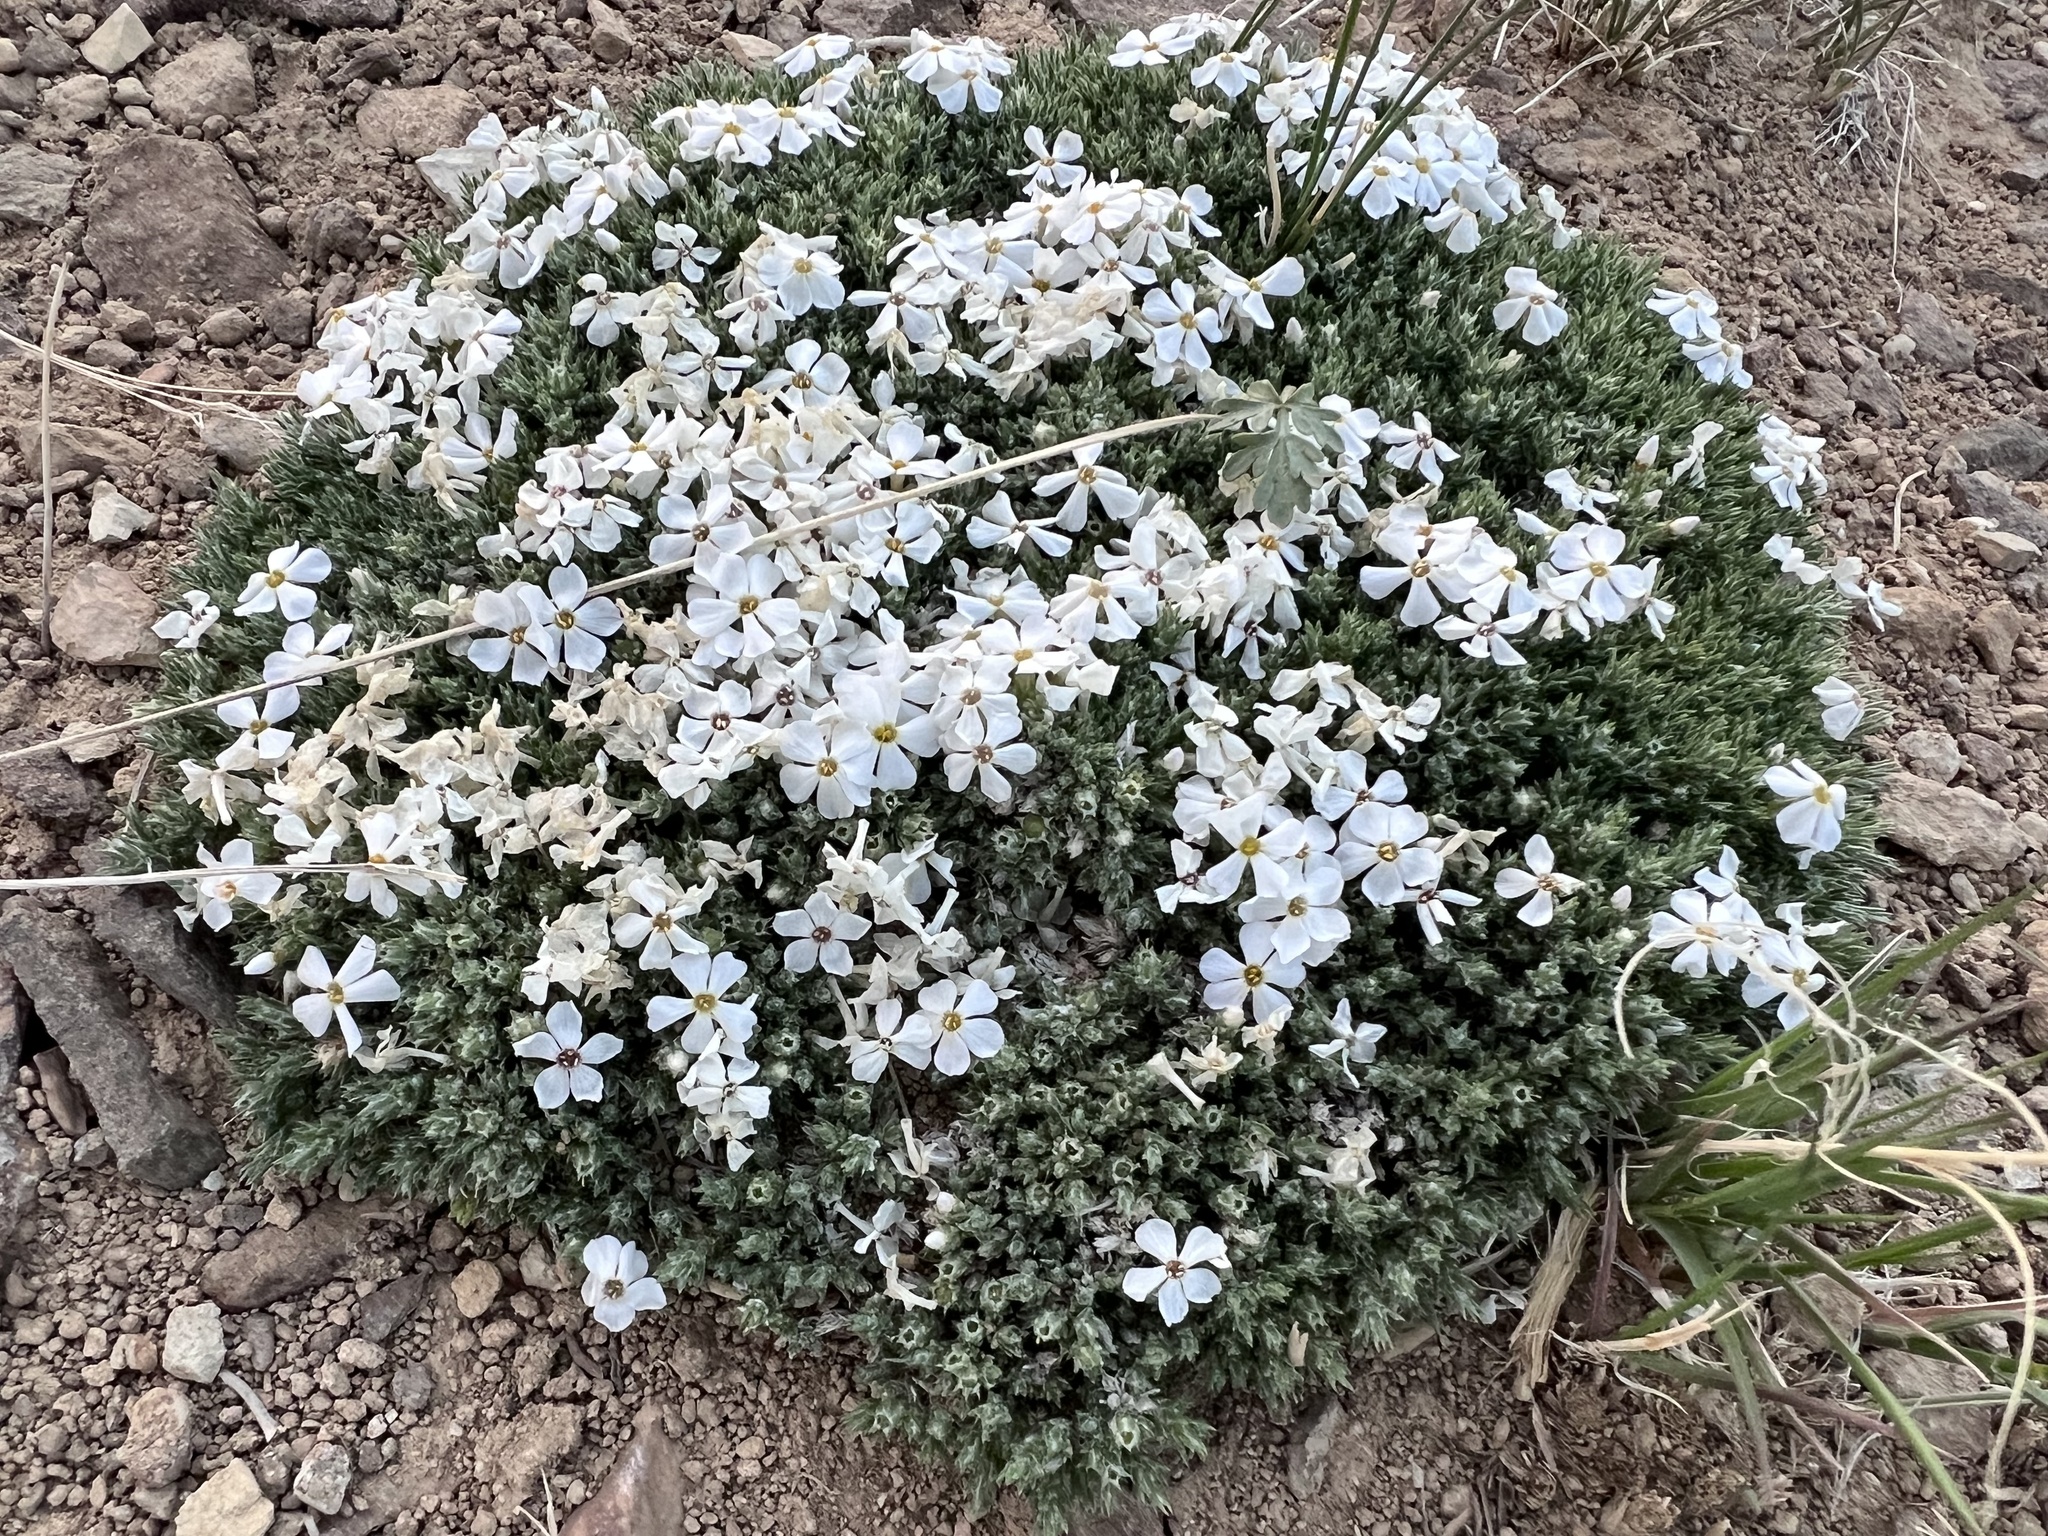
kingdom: Plantae
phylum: Tracheophyta
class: Magnoliopsida
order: Ericales
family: Polemoniaceae
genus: Phlox
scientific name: Phlox hoodii
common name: Moss phlox
